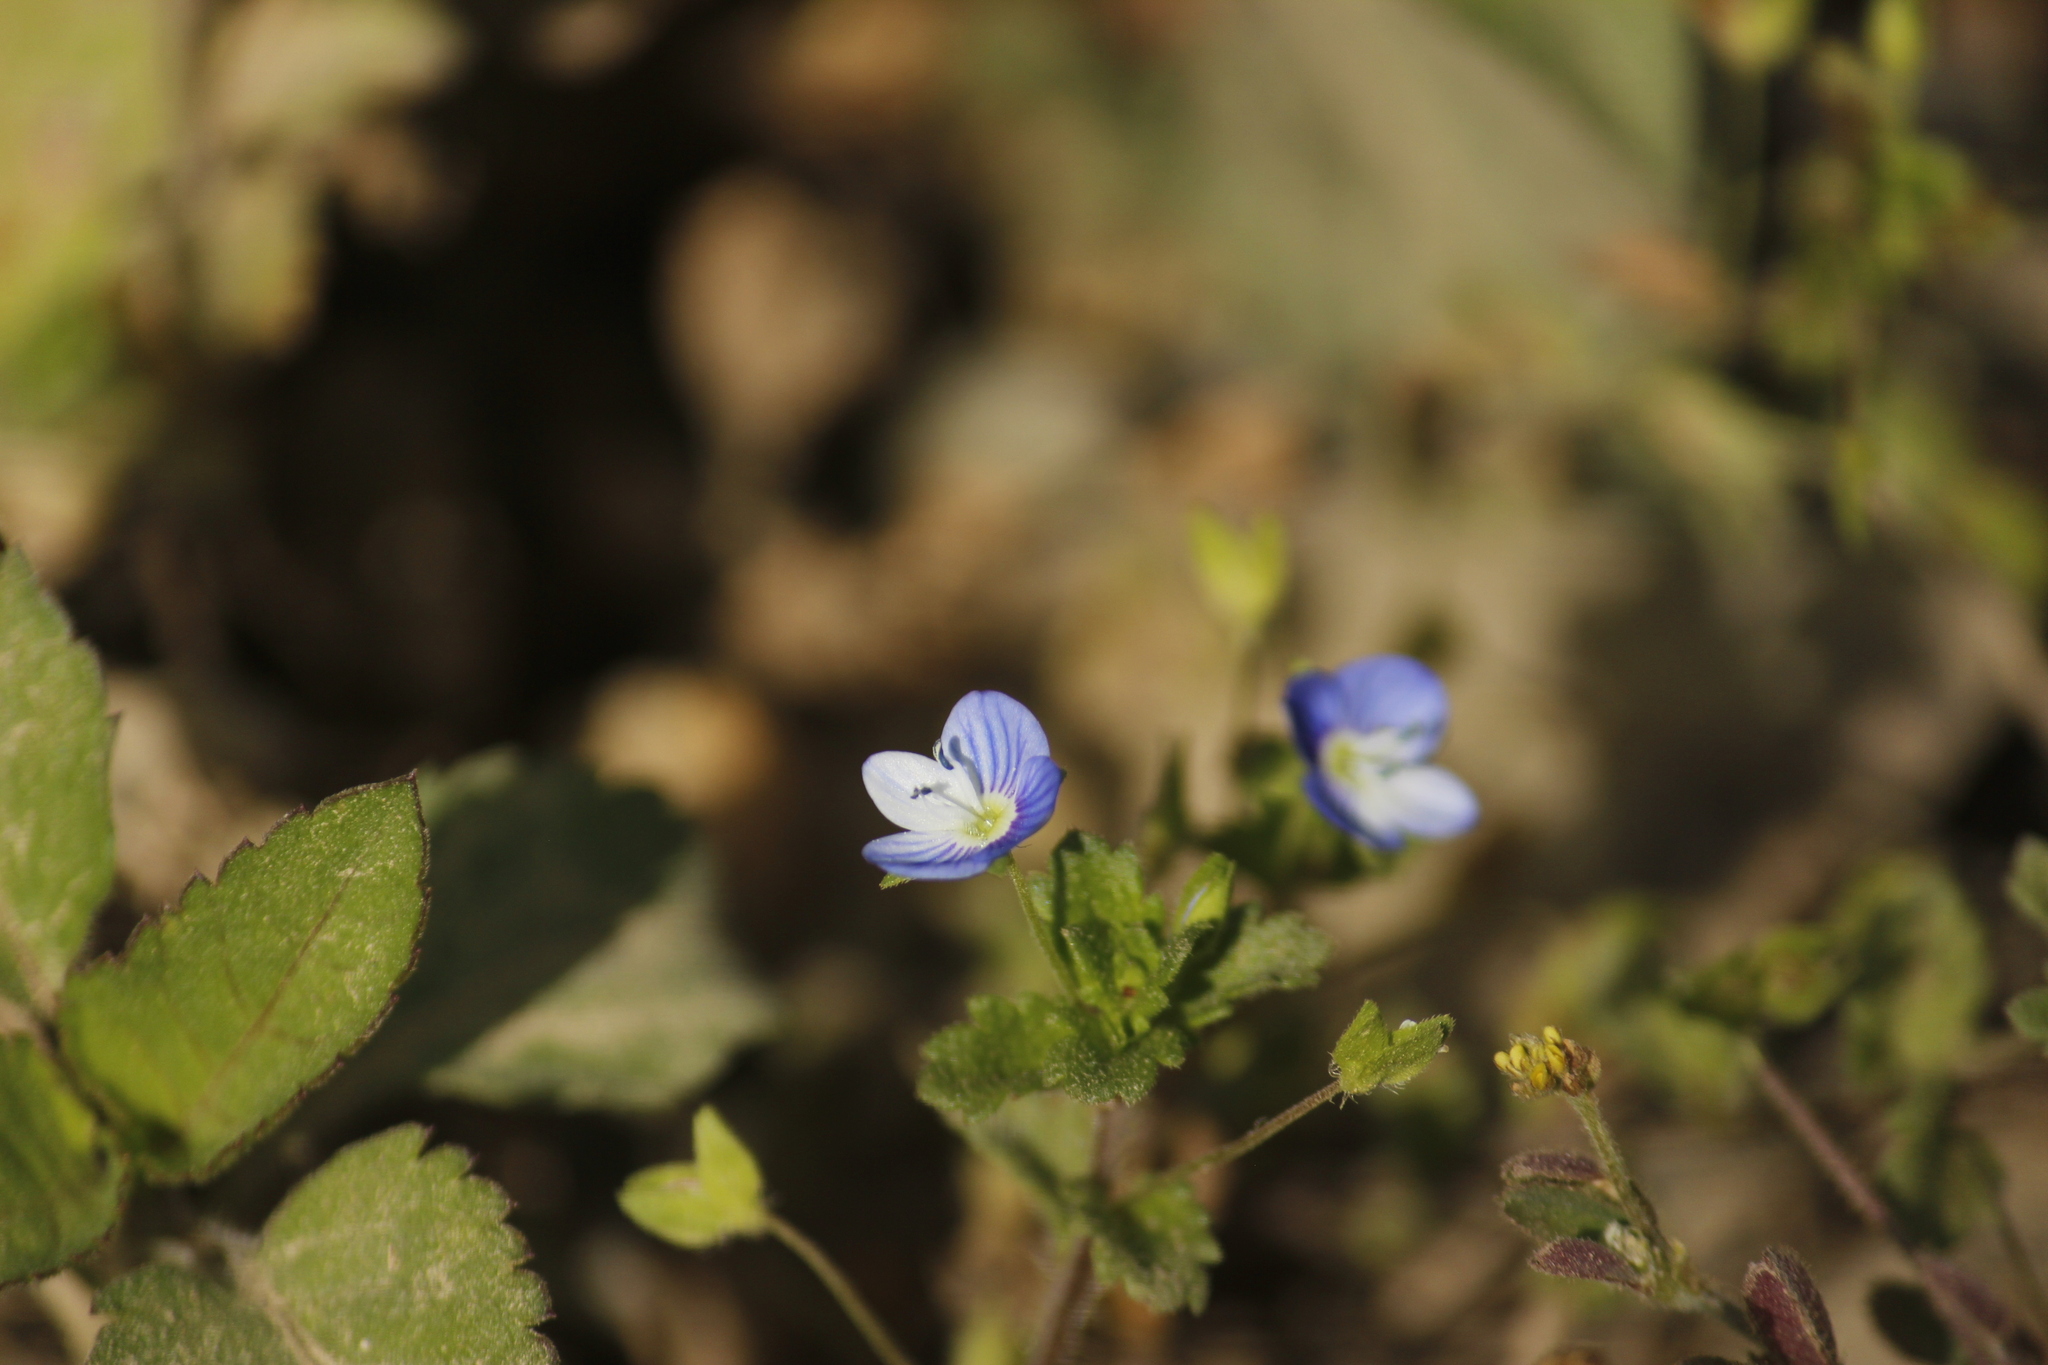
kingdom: Plantae
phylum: Tracheophyta
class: Magnoliopsida
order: Lamiales
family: Plantaginaceae
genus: Veronica
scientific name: Veronica persica
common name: Common field-speedwell
